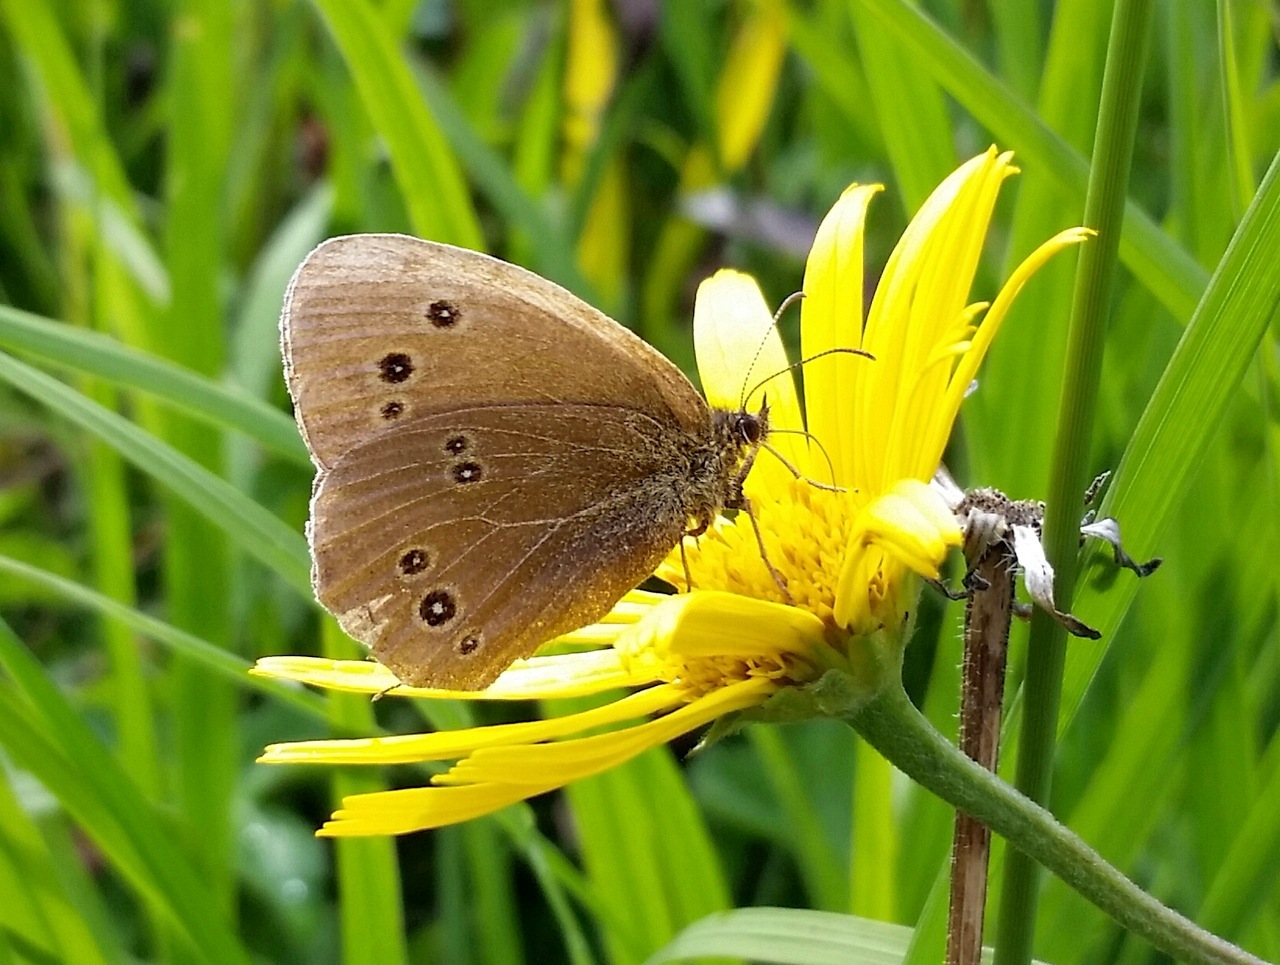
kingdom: Animalia
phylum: Arthropoda
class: Insecta
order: Lepidoptera
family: Nymphalidae
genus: Aphantopus
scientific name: Aphantopus hyperantus
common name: Ringlet
